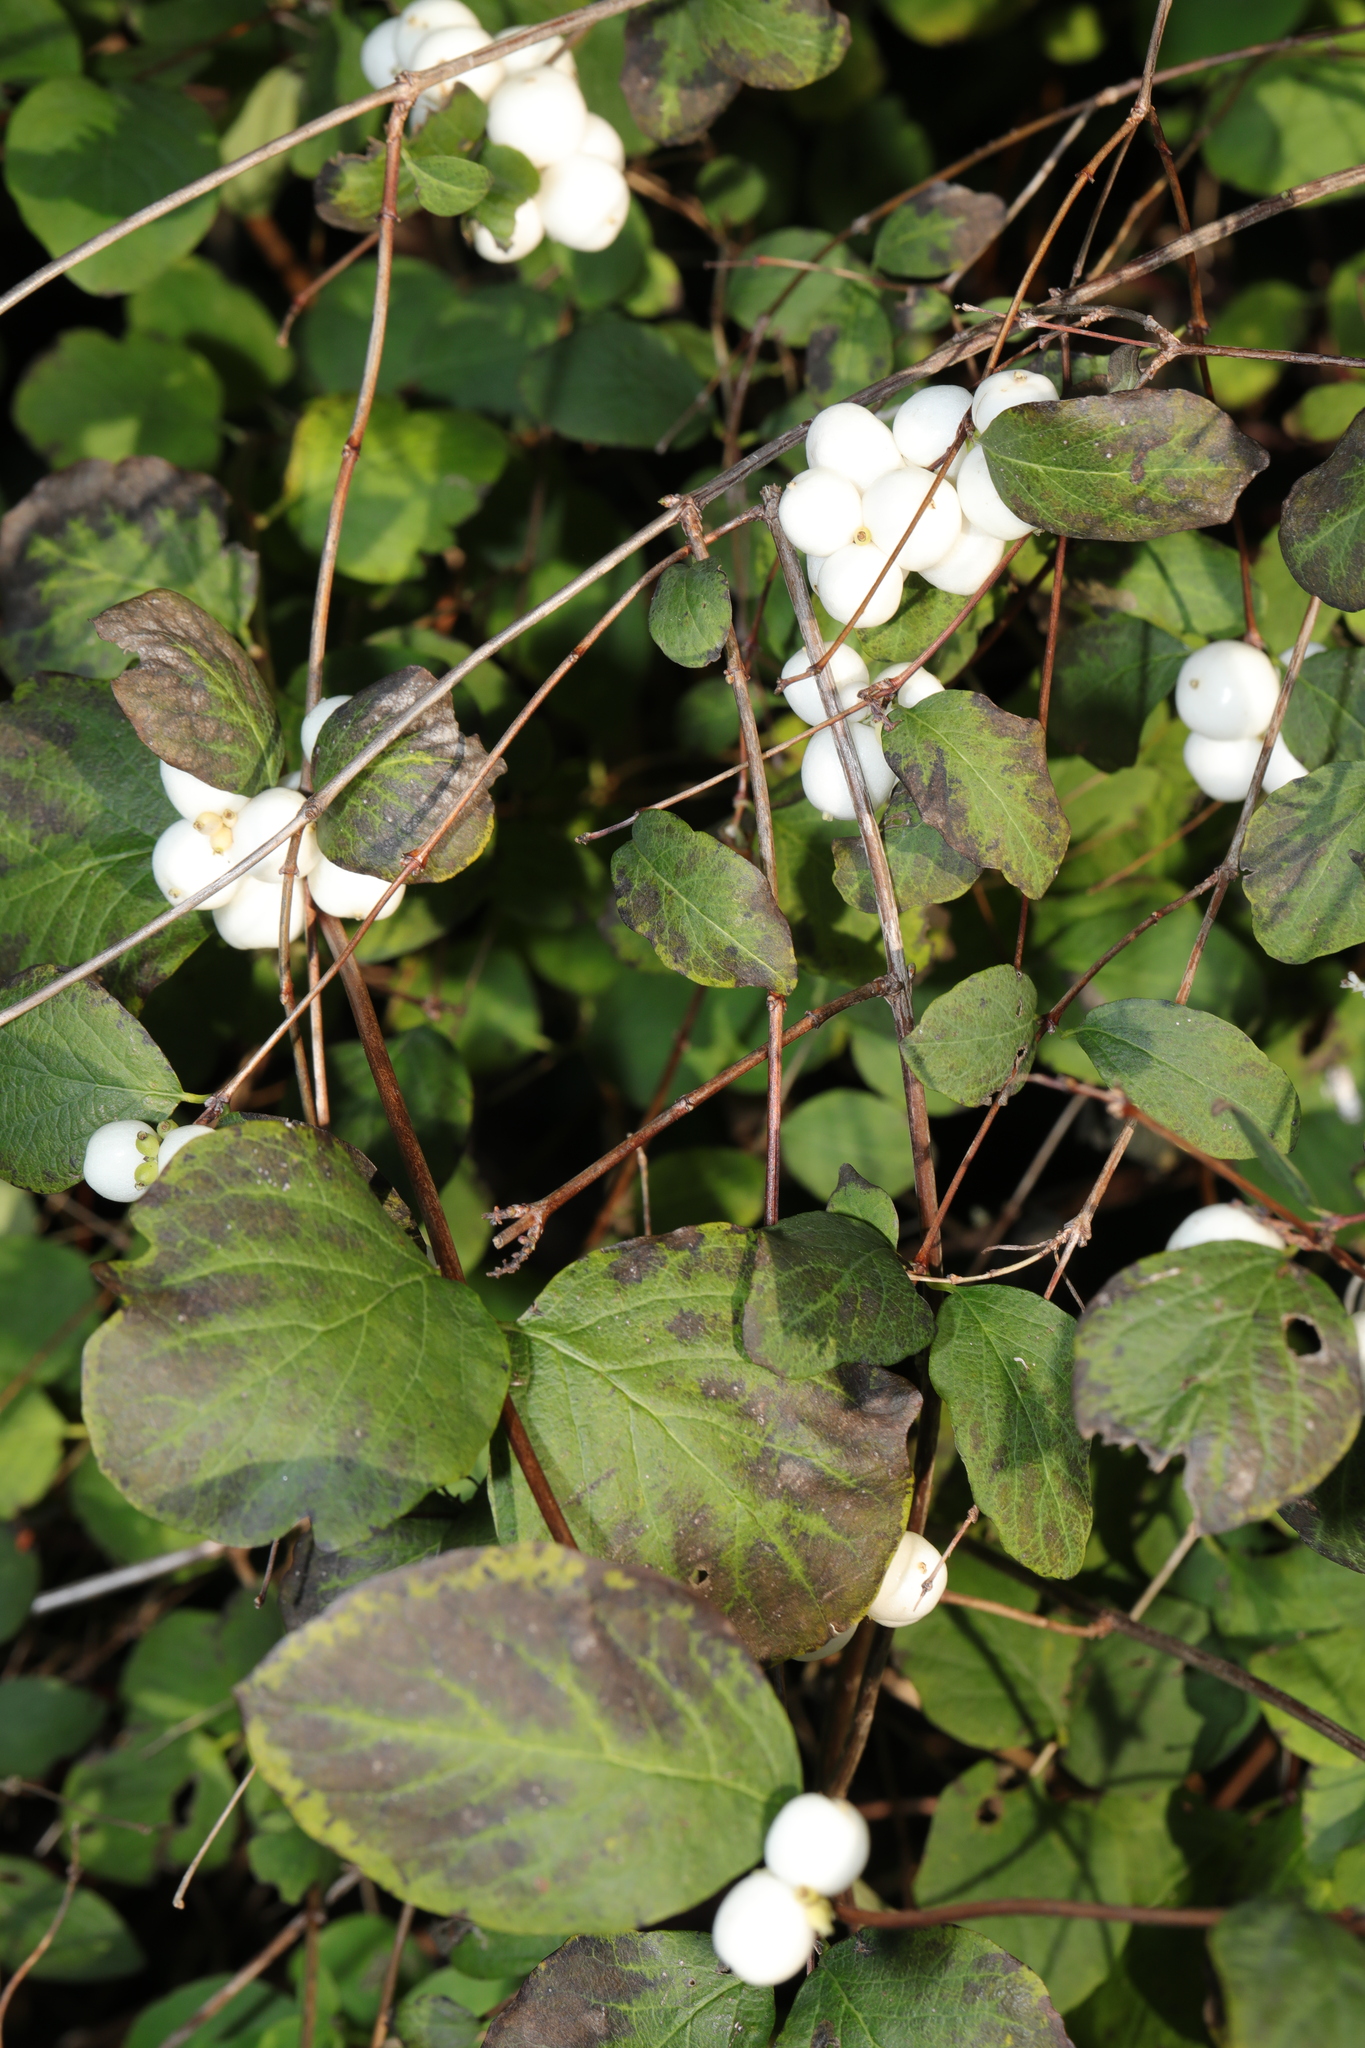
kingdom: Plantae
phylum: Tracheophyta
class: Magnoliopsida
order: Dipsacales
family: Caprifoliaceae
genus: Symphoricarpos
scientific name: Symphoricarpos albus
